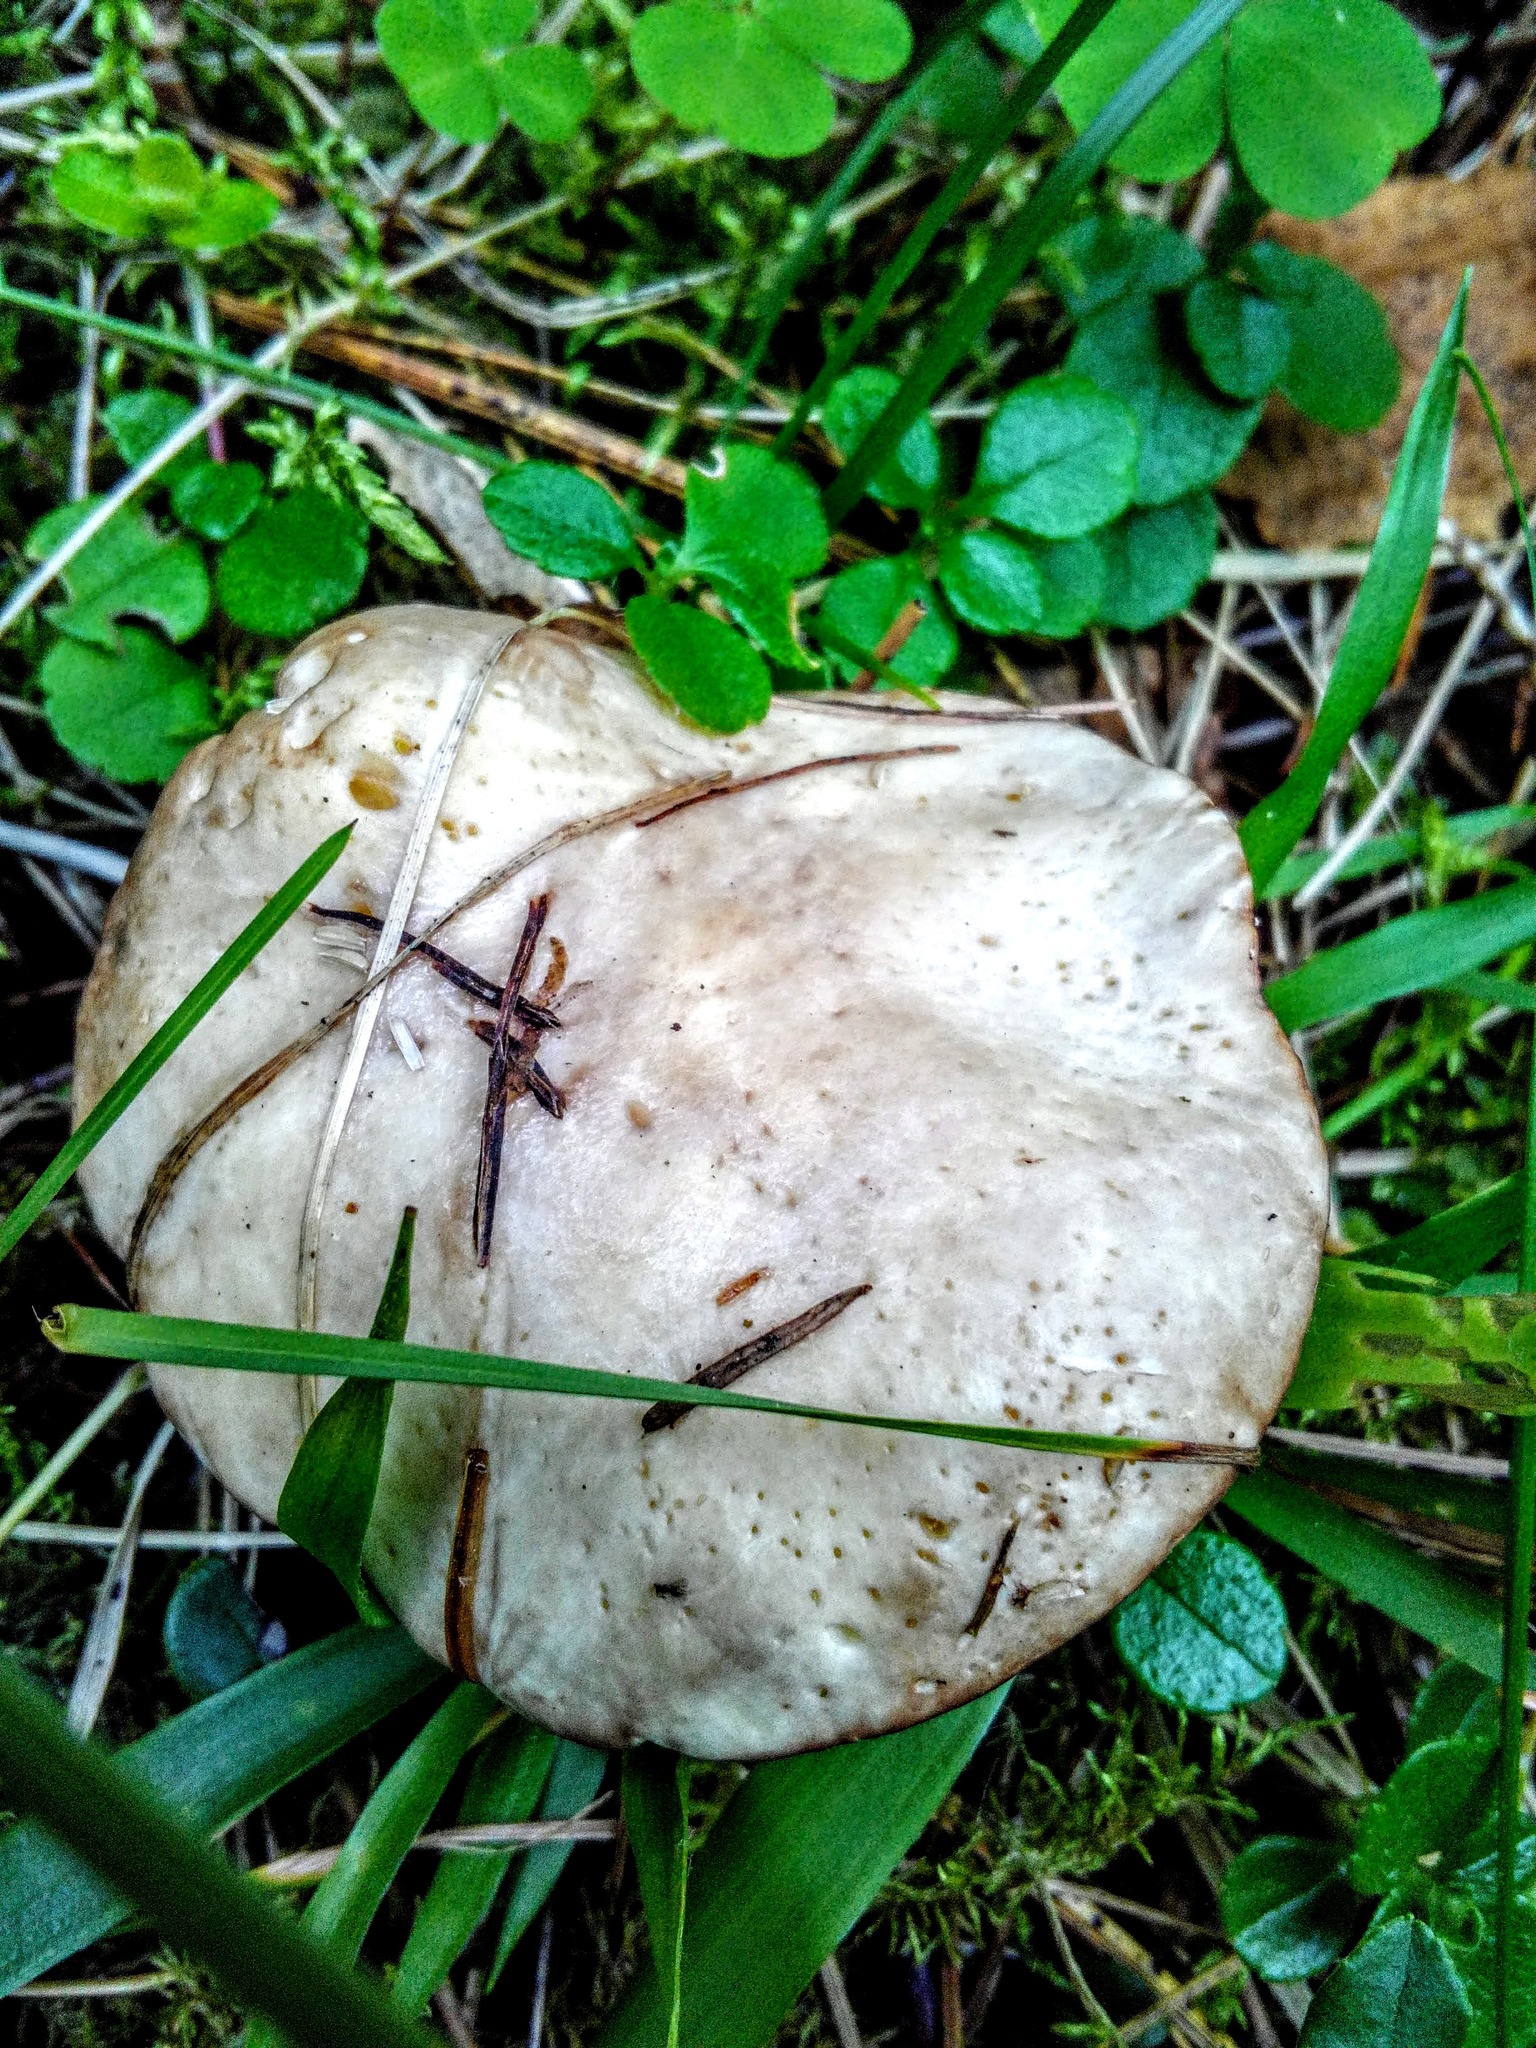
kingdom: Fungi
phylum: Basidiomycota
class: Agaricomycetes
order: Boletales
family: Suillaceae
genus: Suillus
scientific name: Suillus placidus
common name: Slippery white bolete
